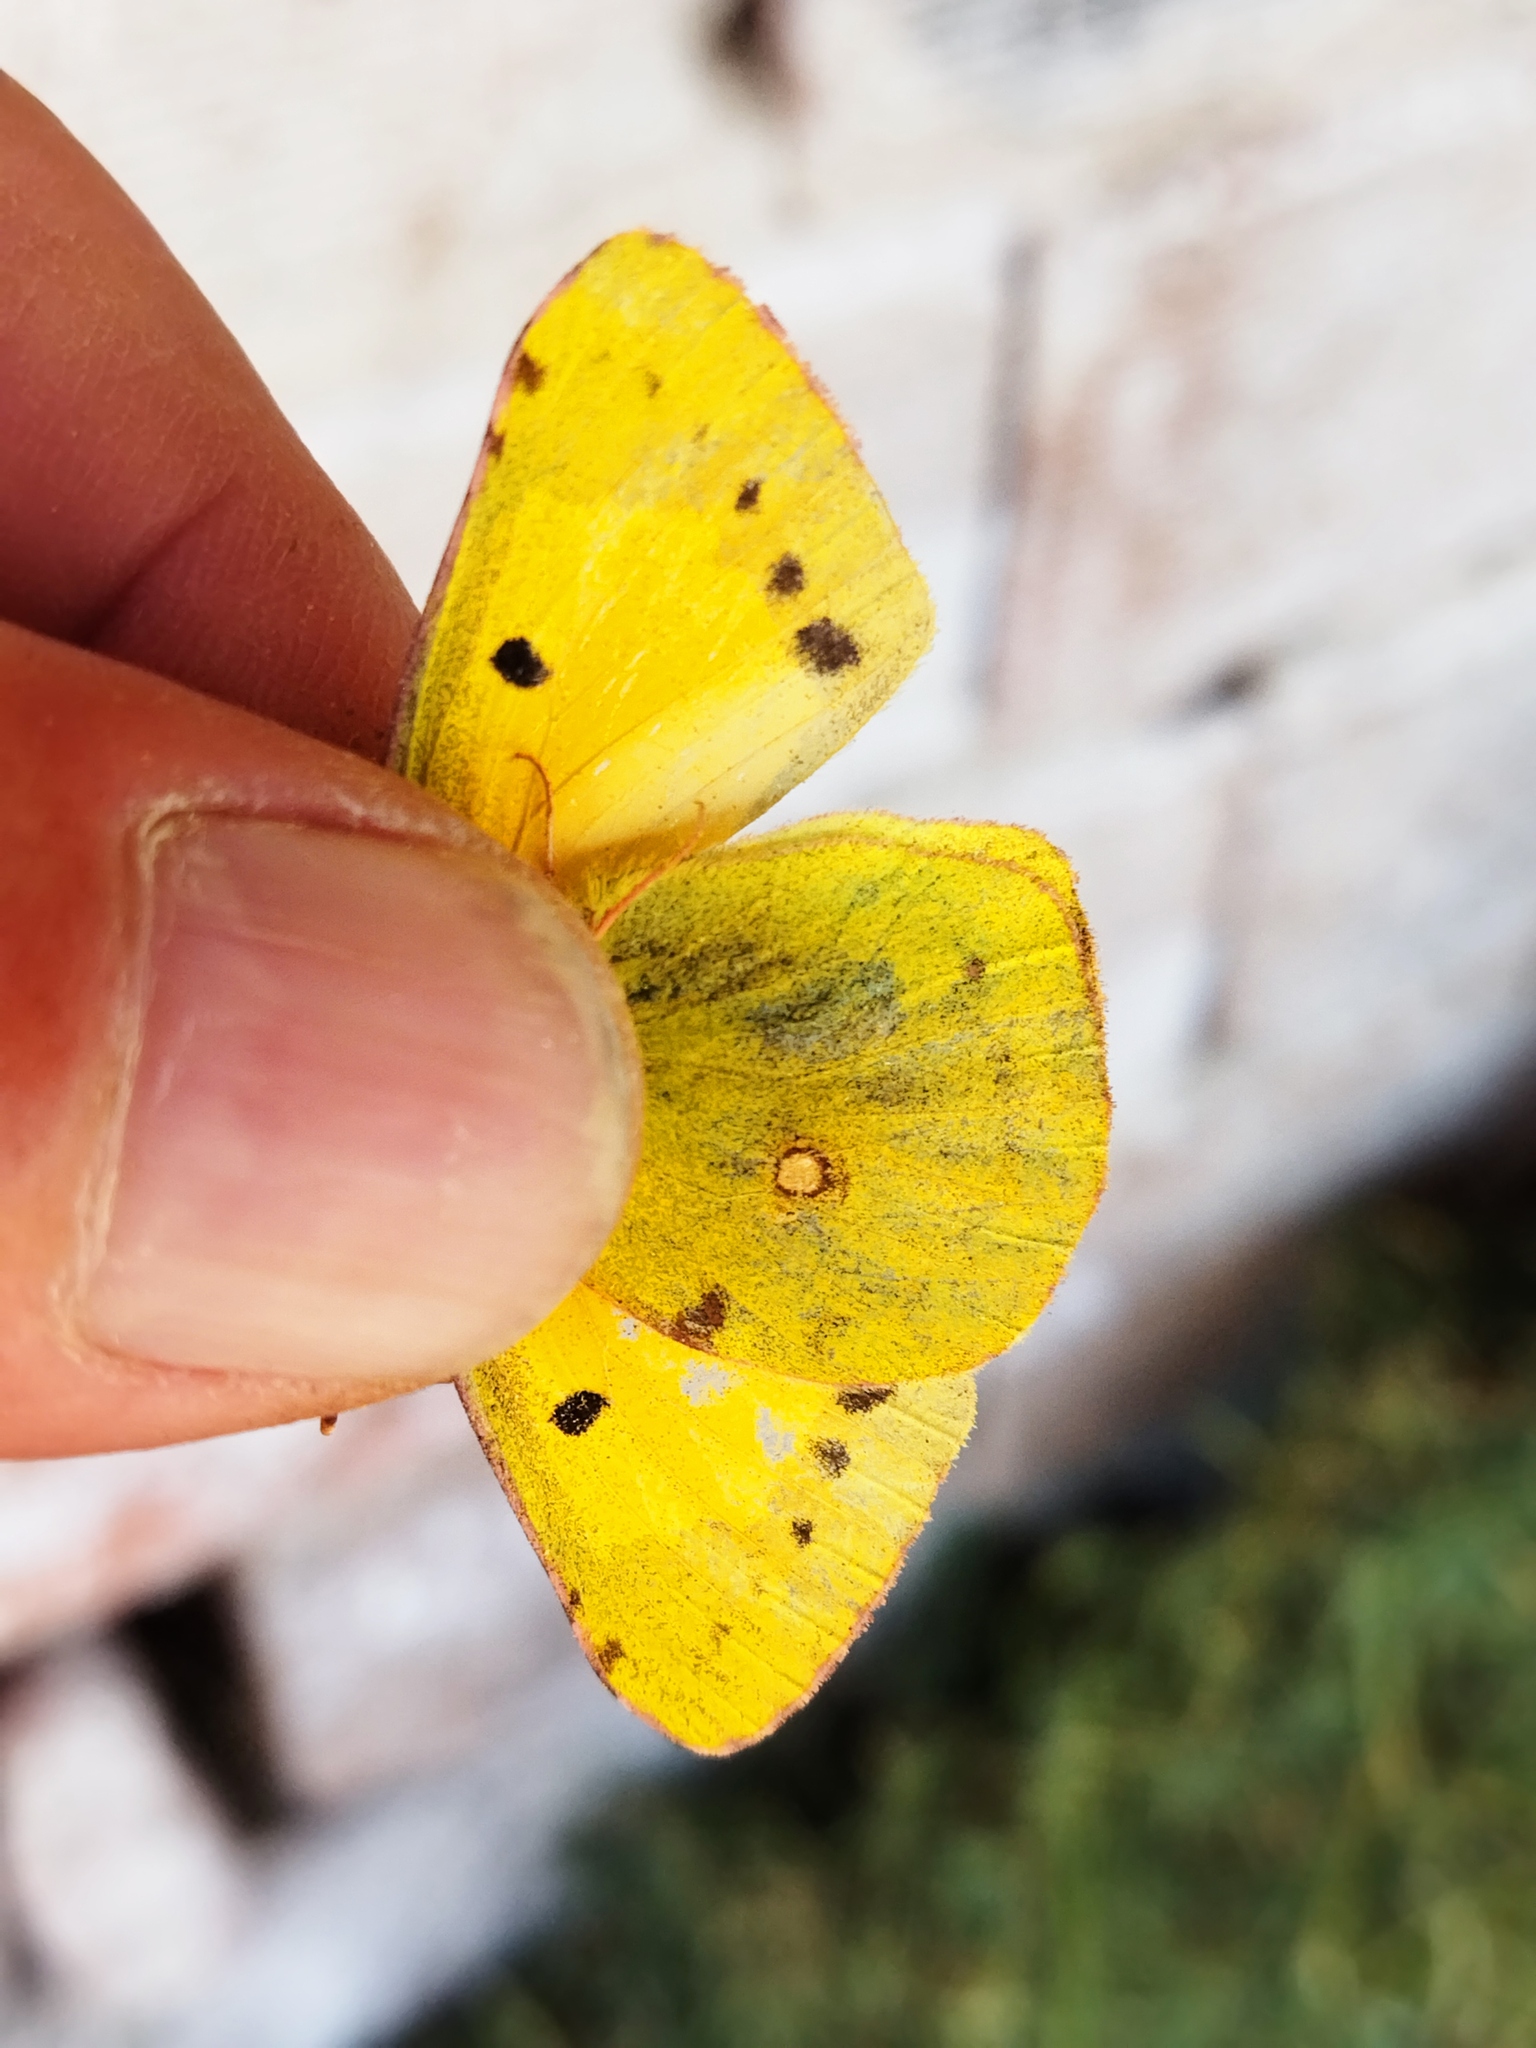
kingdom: Animalia
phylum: Arthropoda
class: Insecta
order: Lepidoptera
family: Pieridae
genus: Colias
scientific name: Colias croceus
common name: Clouded yellow
